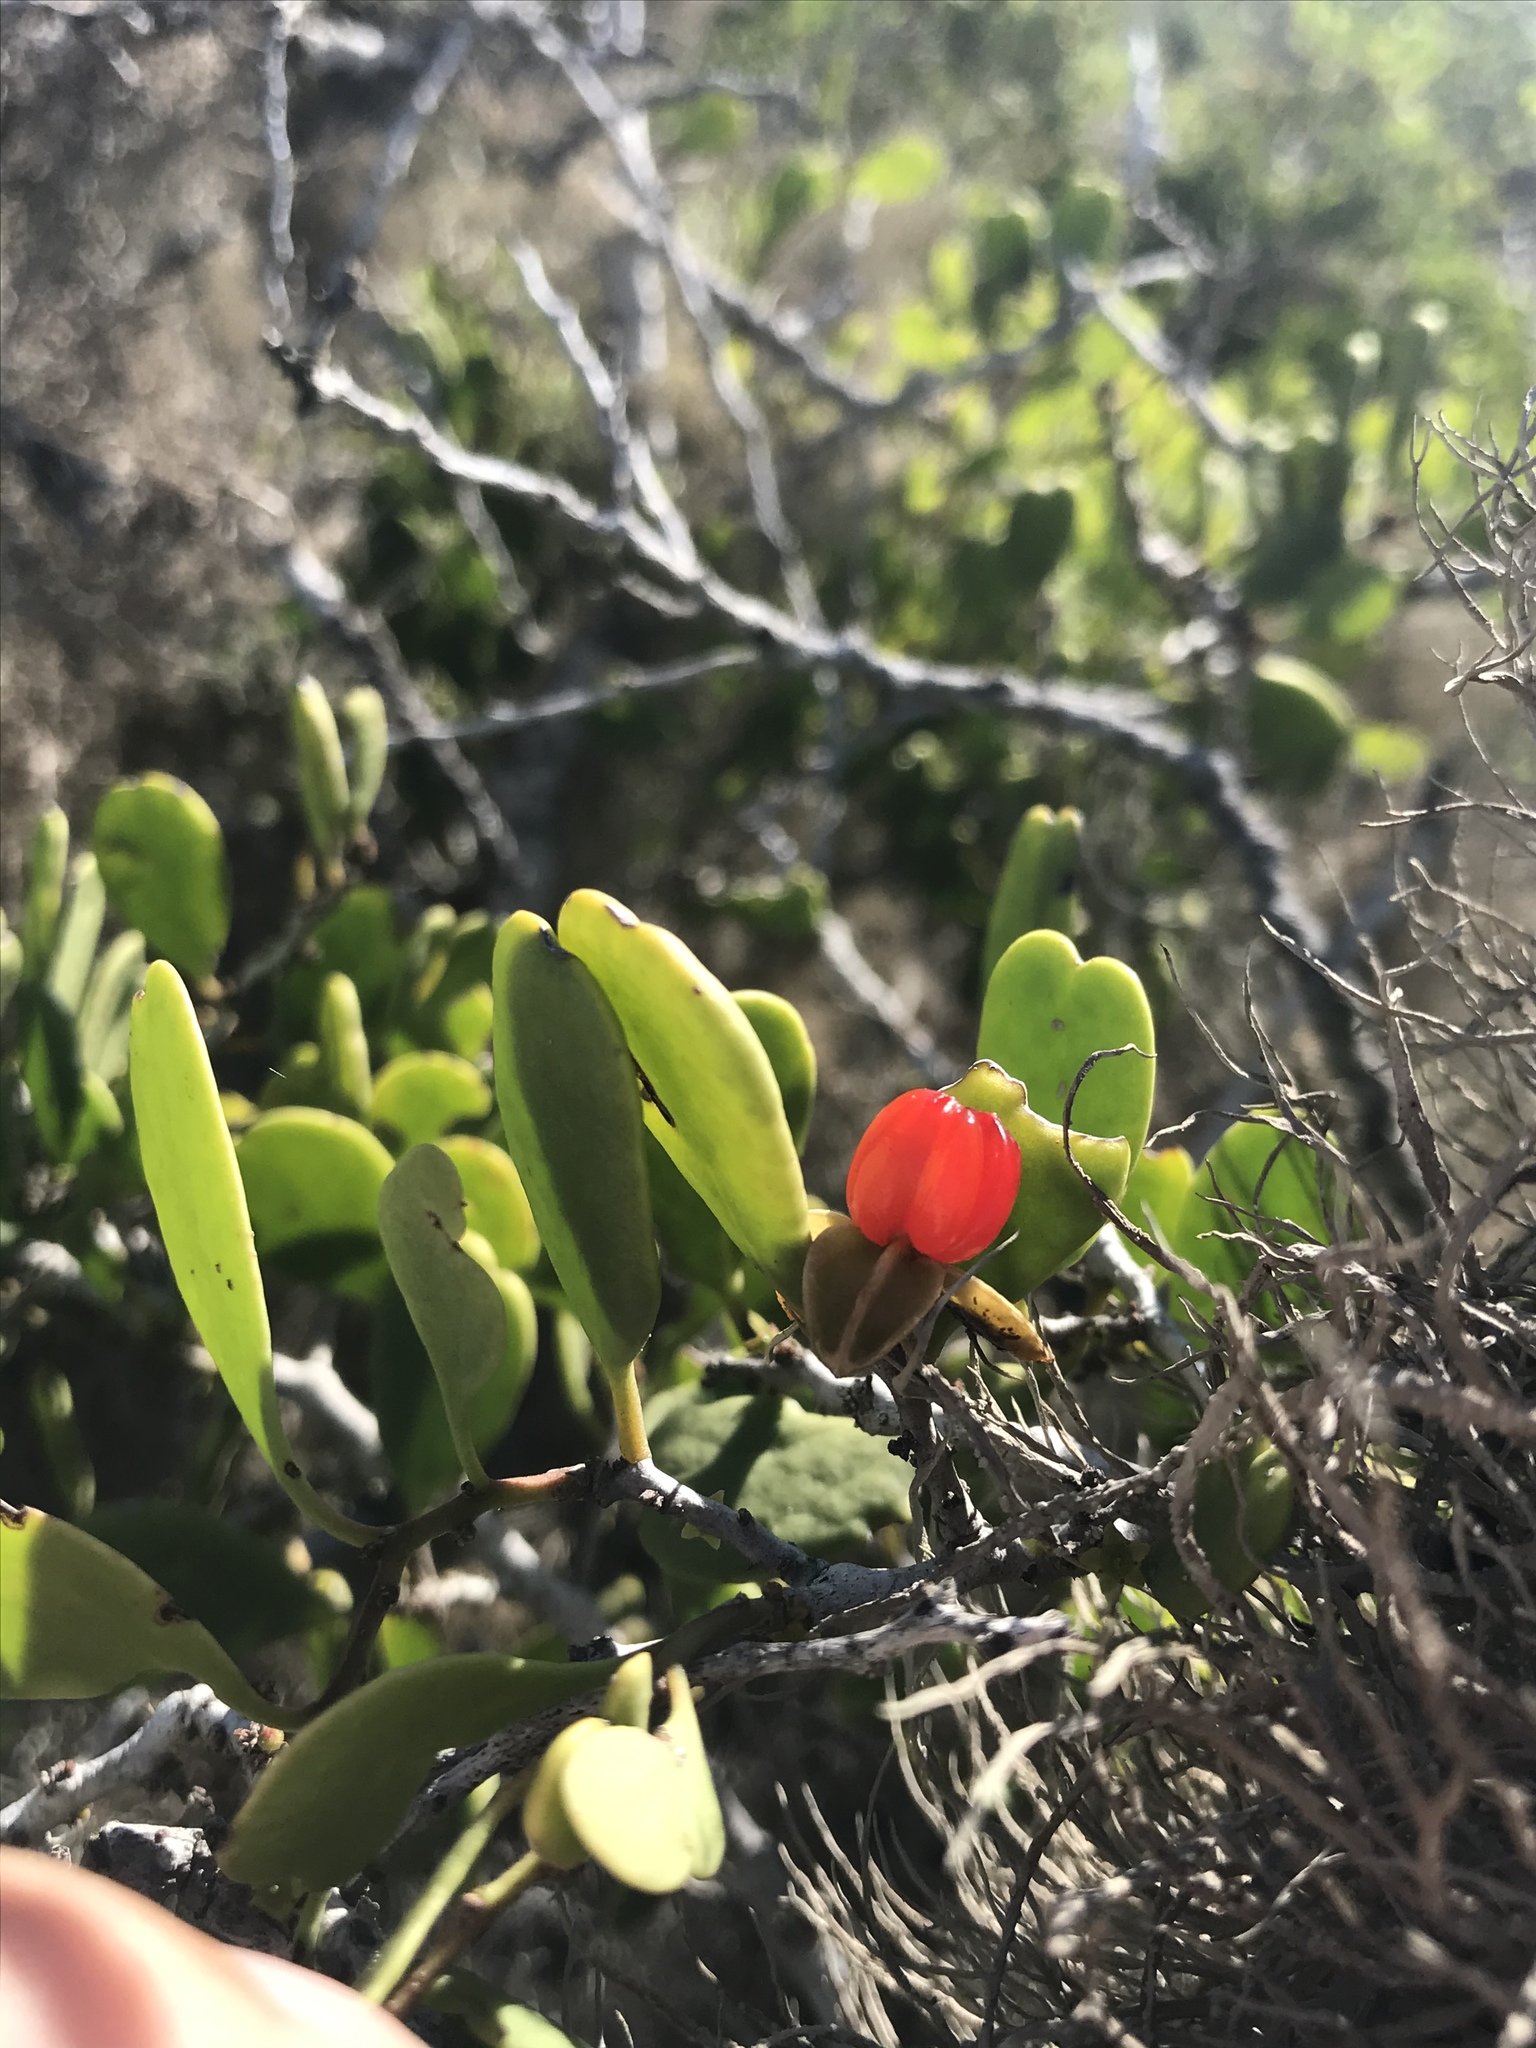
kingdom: Plantae
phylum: Tracheophyta
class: Magnoliopsida
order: Celastrales
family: Celastraceae
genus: Tricerma
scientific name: Tricerma phyllanthoides
